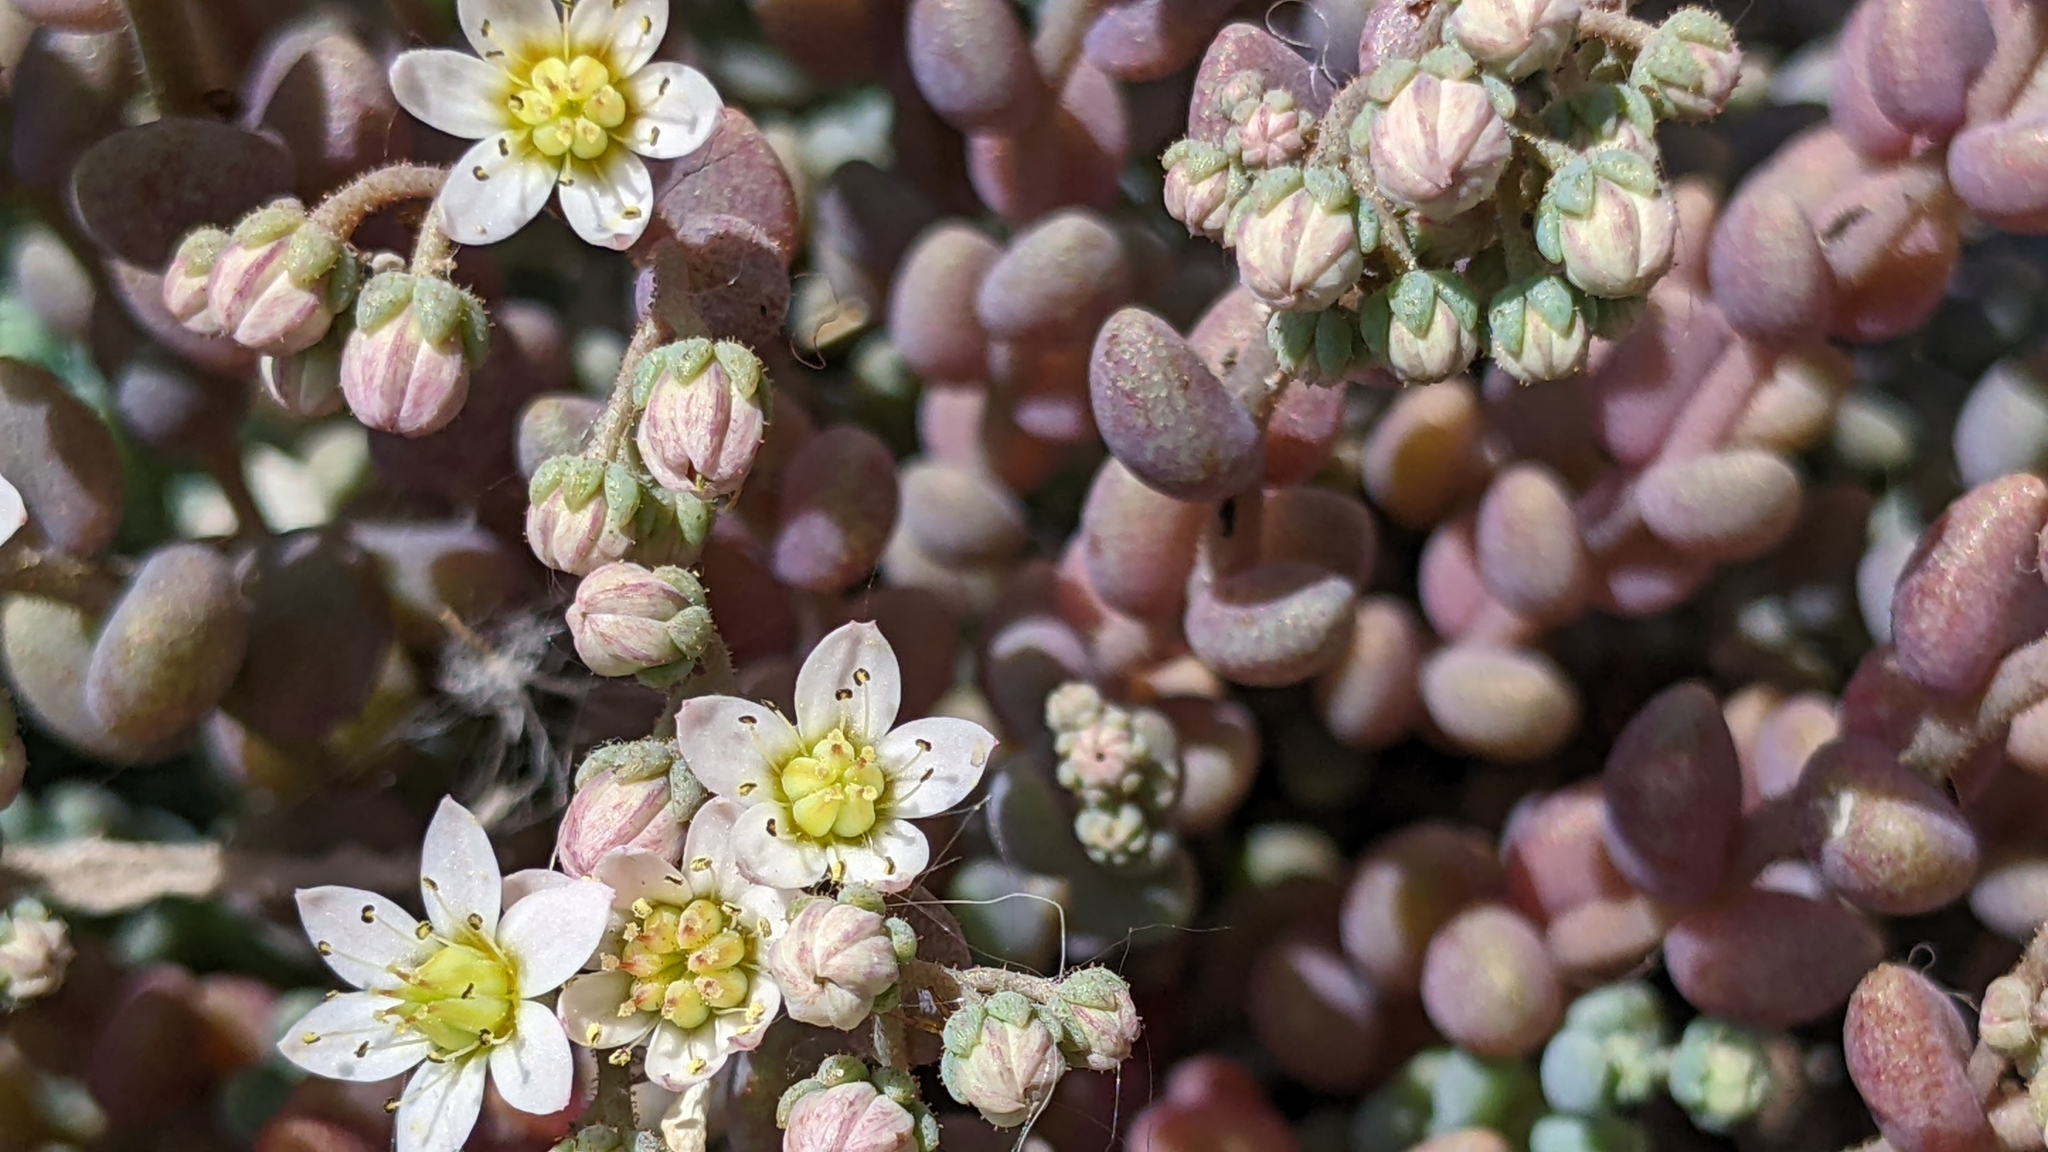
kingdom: Plantae
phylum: Tracheophyta
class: Magnoliopsida
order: Saxifragales
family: Crassulaceae
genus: Sedum
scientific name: Sedum dasyphyllum
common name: Thick-leaf stonecrop
